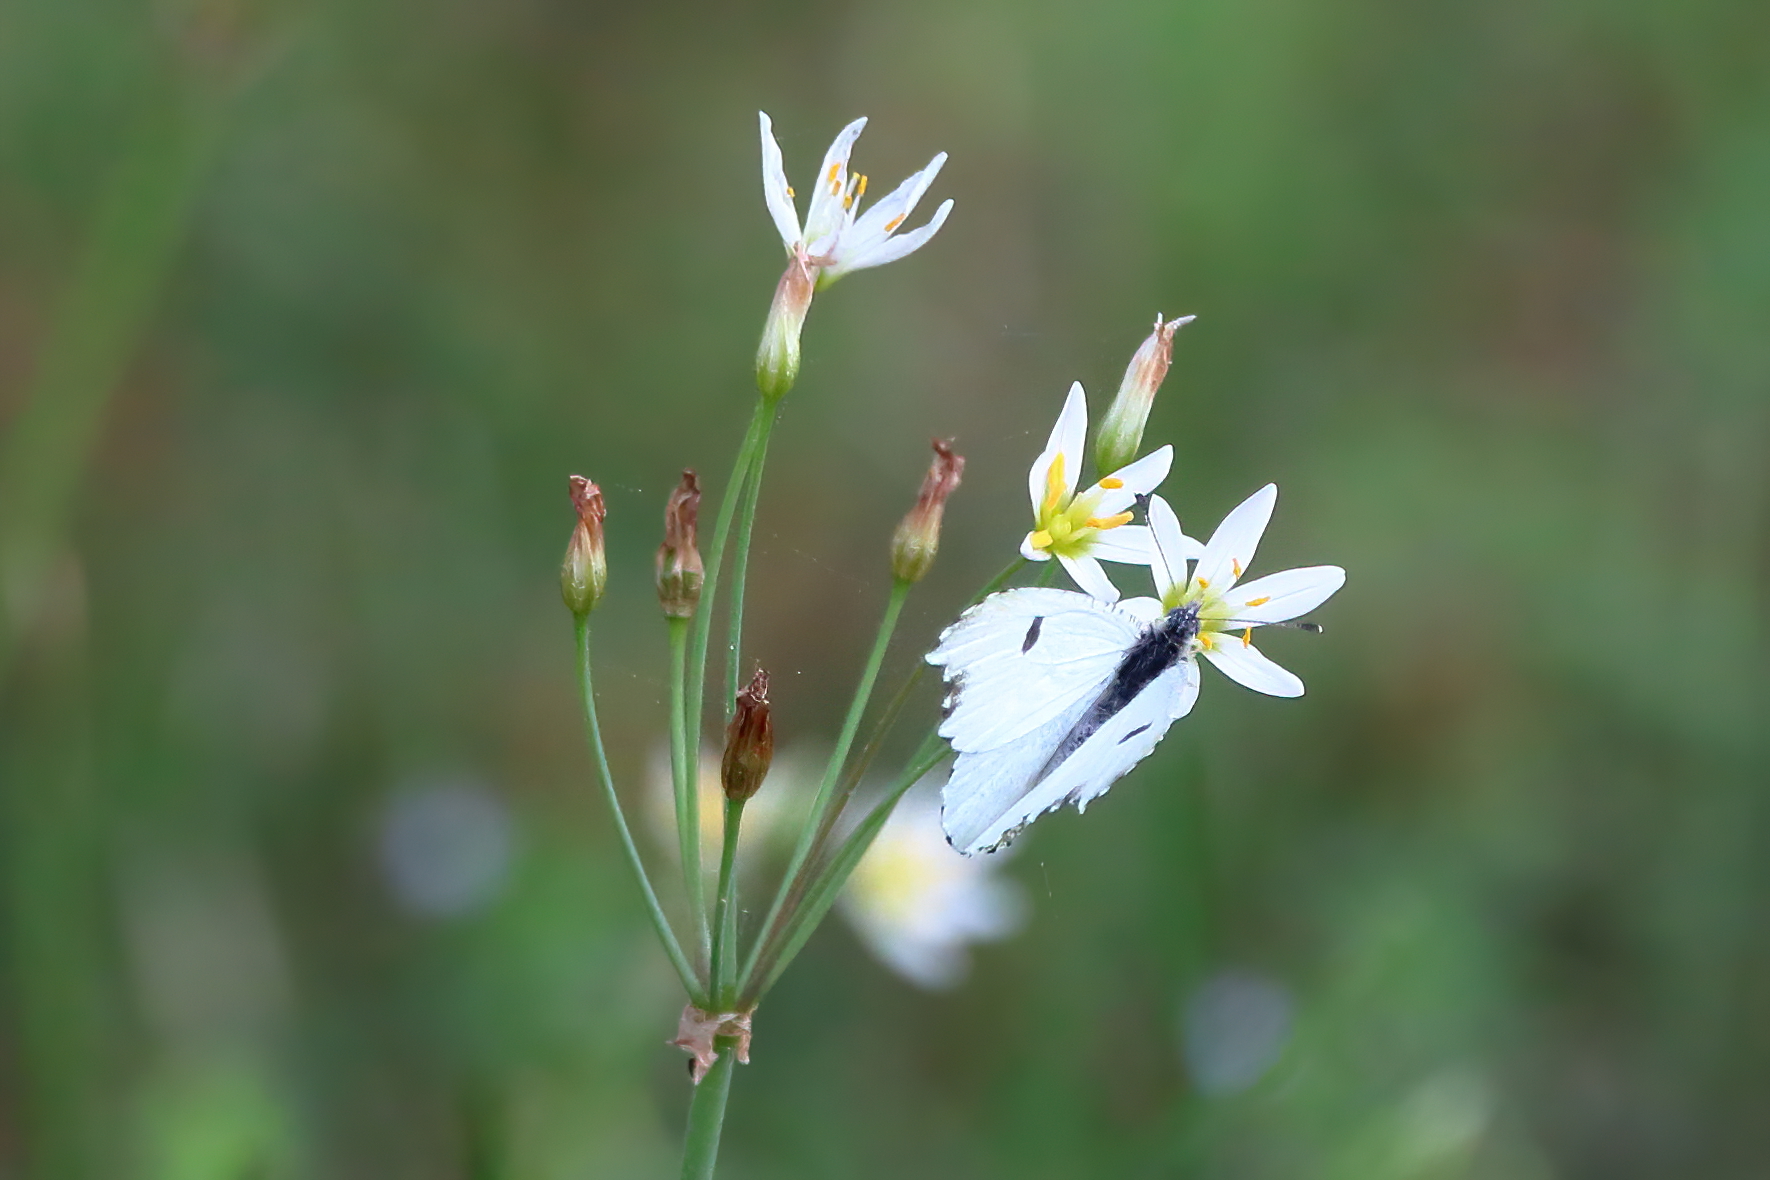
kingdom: Animalia
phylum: Arthropoda
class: Insecta
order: Lepidoptera
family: Pieridae
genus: Anthocharis
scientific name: Anthocharis midea
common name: Falcate orangetip
